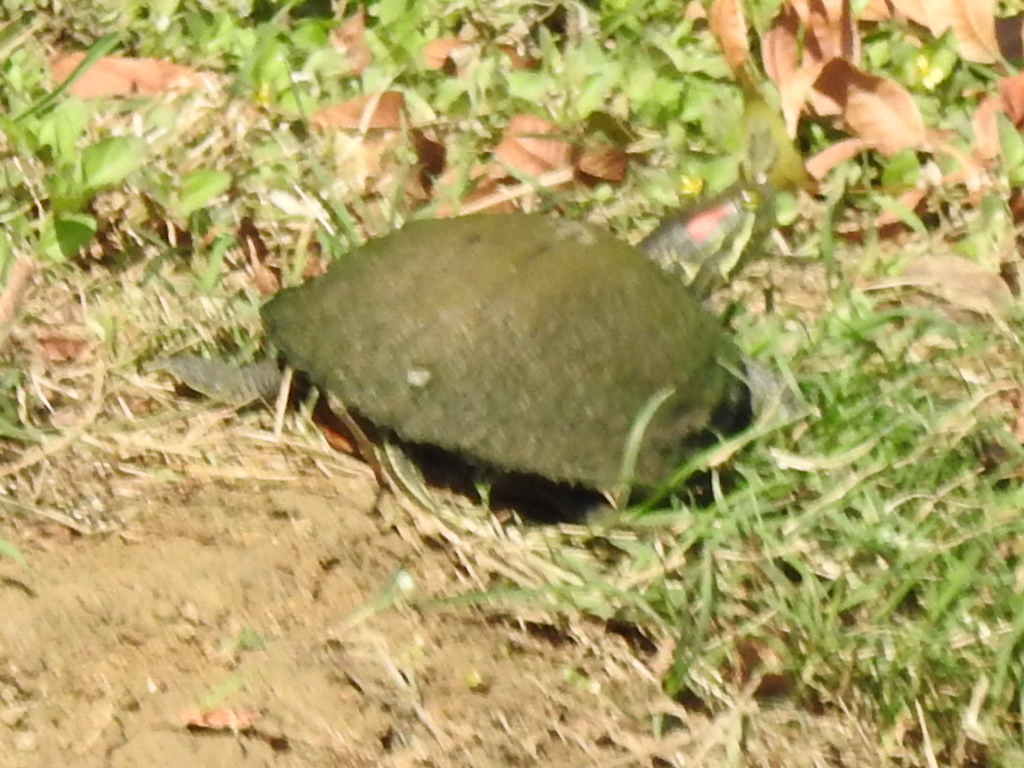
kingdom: Animalia
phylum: Chordata
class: Testudines
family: Emydidae
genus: Trachemys
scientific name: Trachemys scripta
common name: Slider
